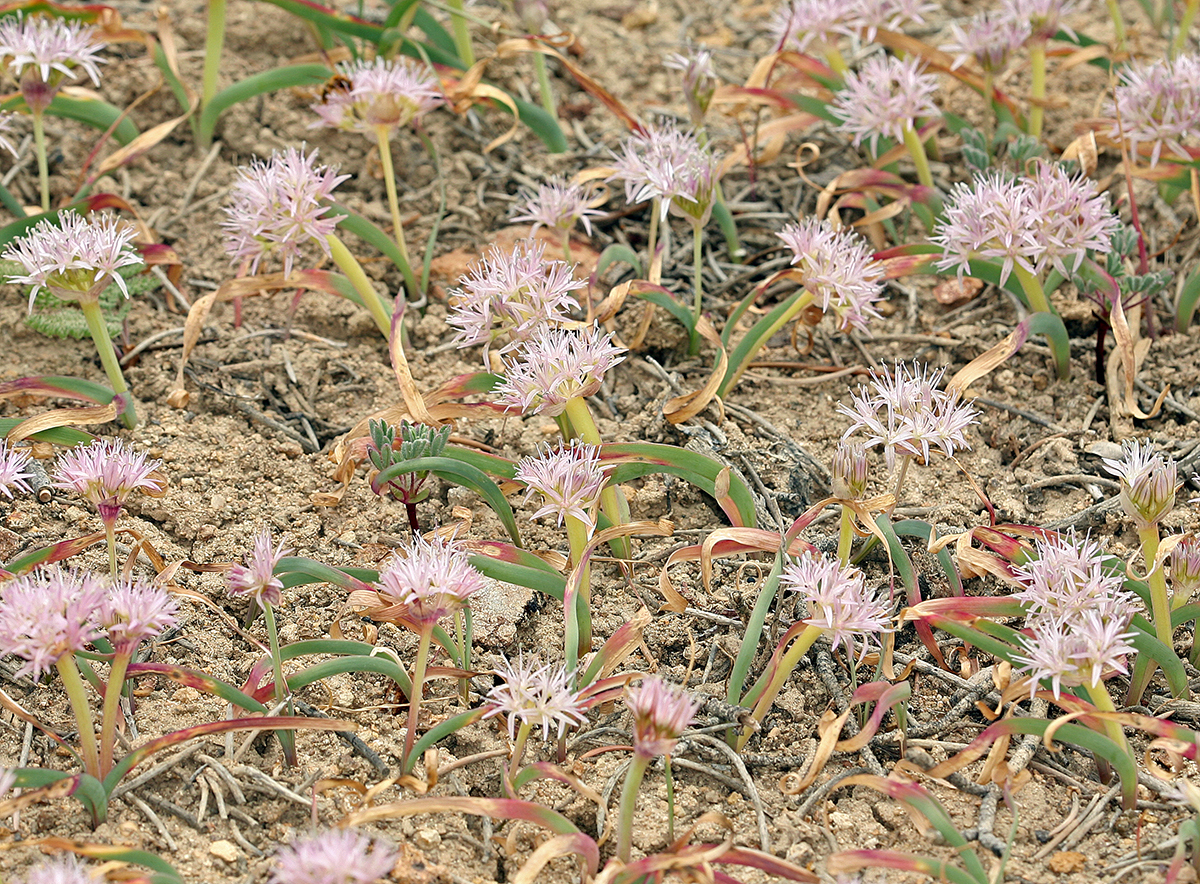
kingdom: Plantae
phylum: Tracheophyta
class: Liliopsida
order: Asparagales
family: Amaryllidaceae
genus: Allium
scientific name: Allium anceps
